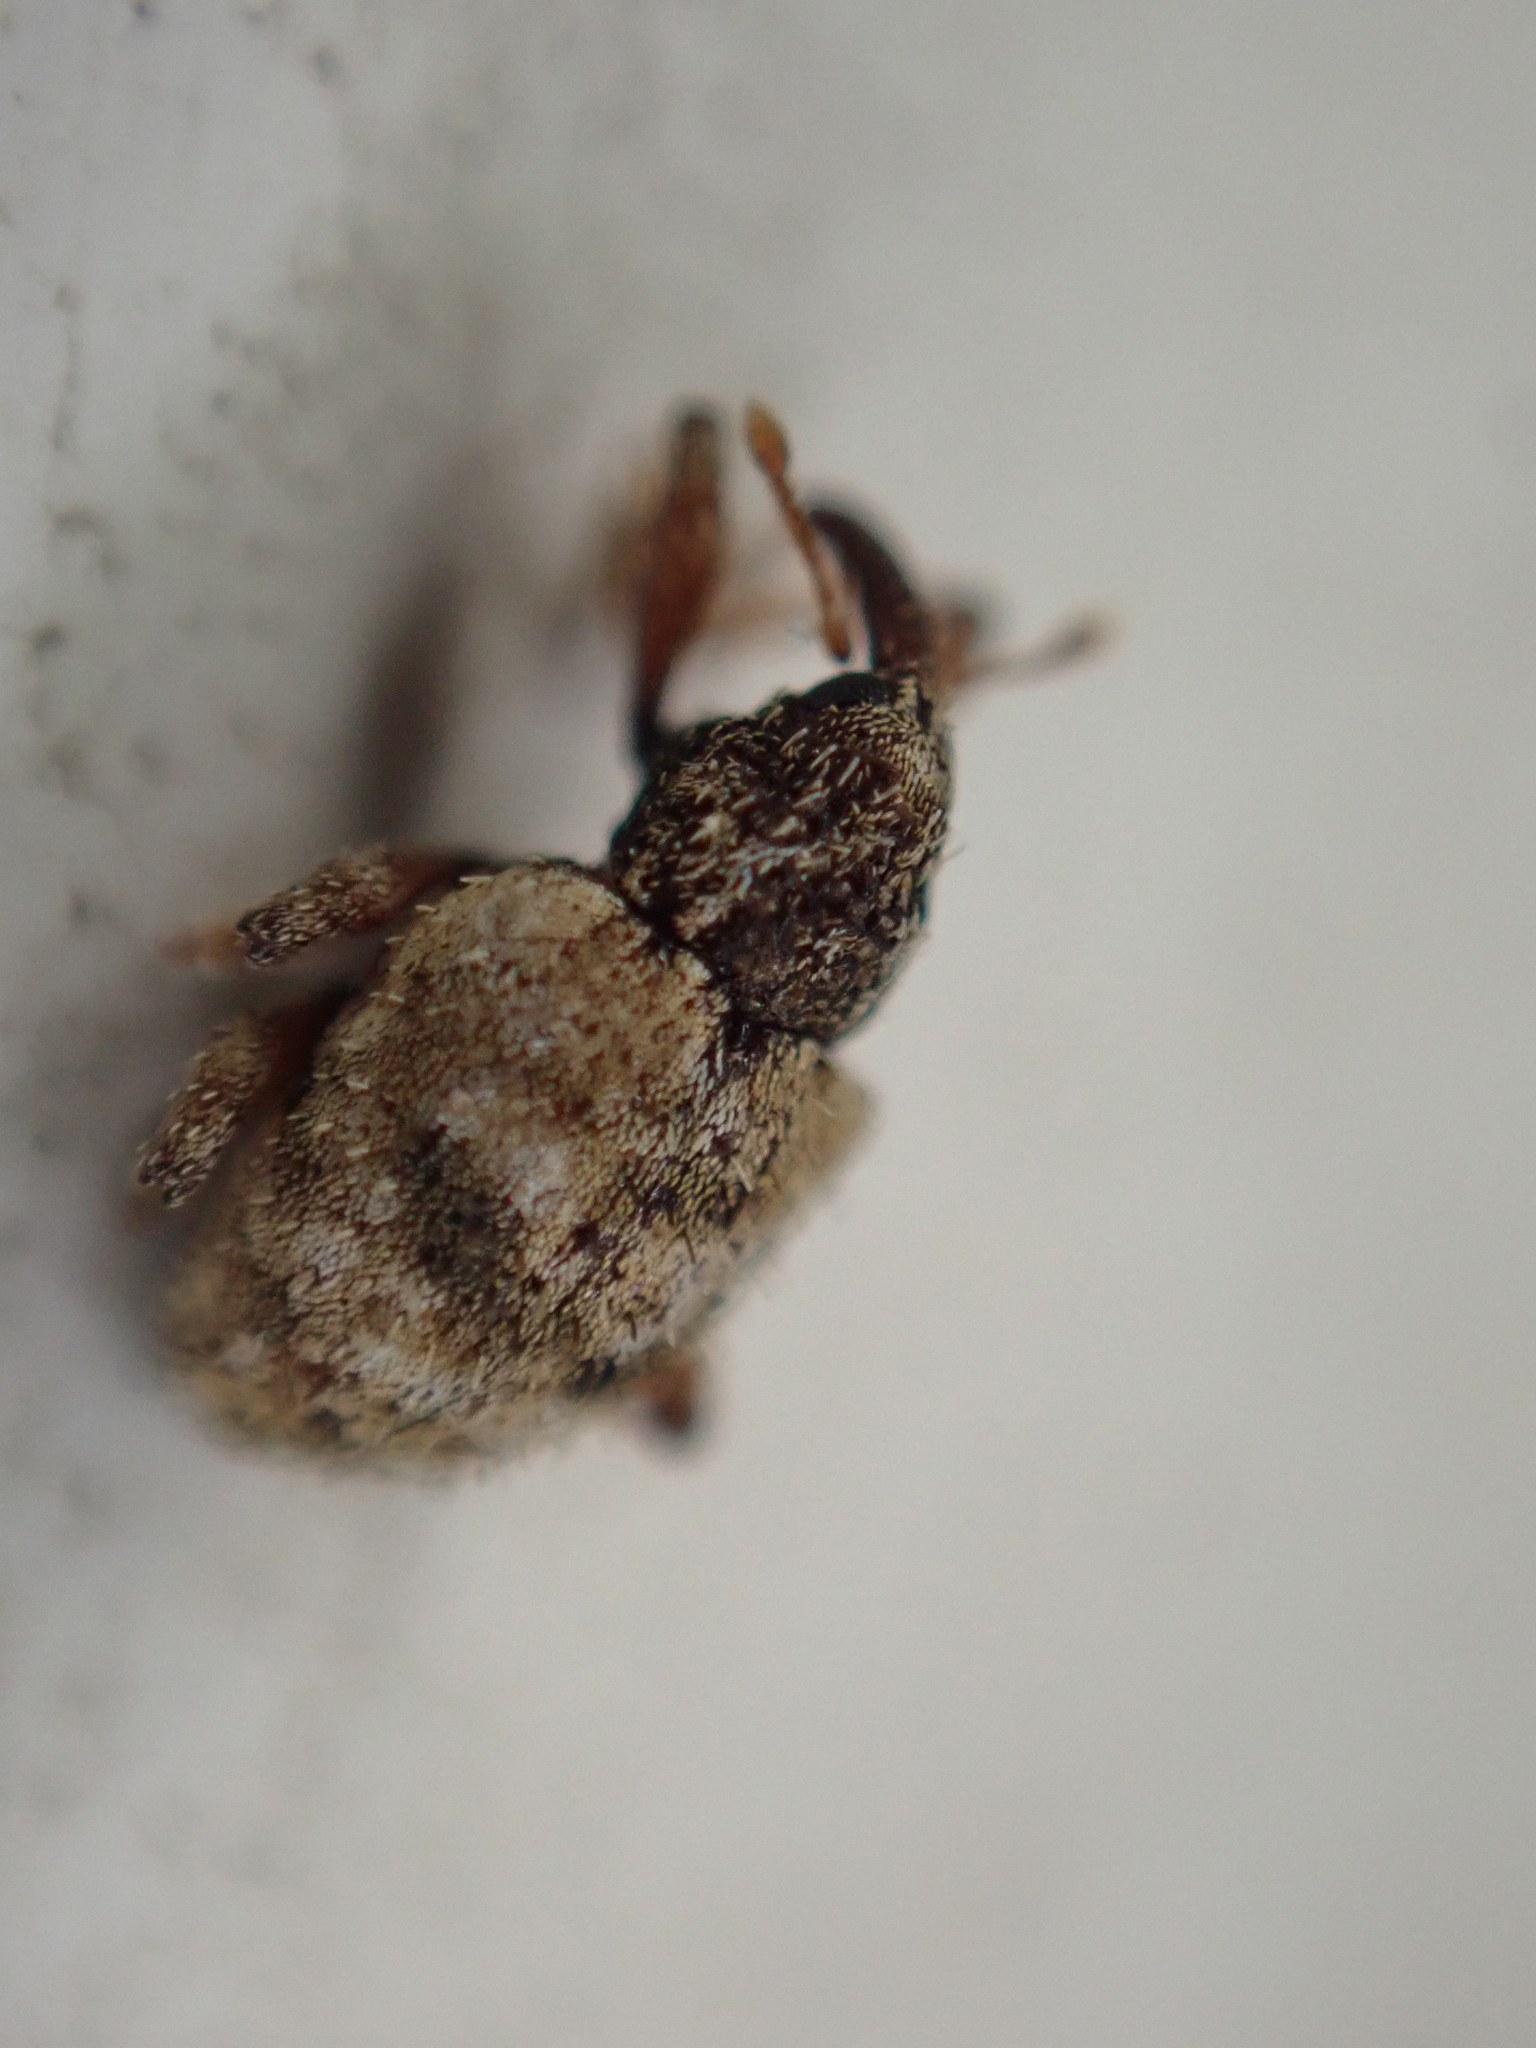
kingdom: Animalia
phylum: Arthropoda
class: Insecta
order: Coleoptera
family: Curculionidae
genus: Conotrachelus
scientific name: Conotrachelus erinaceus
